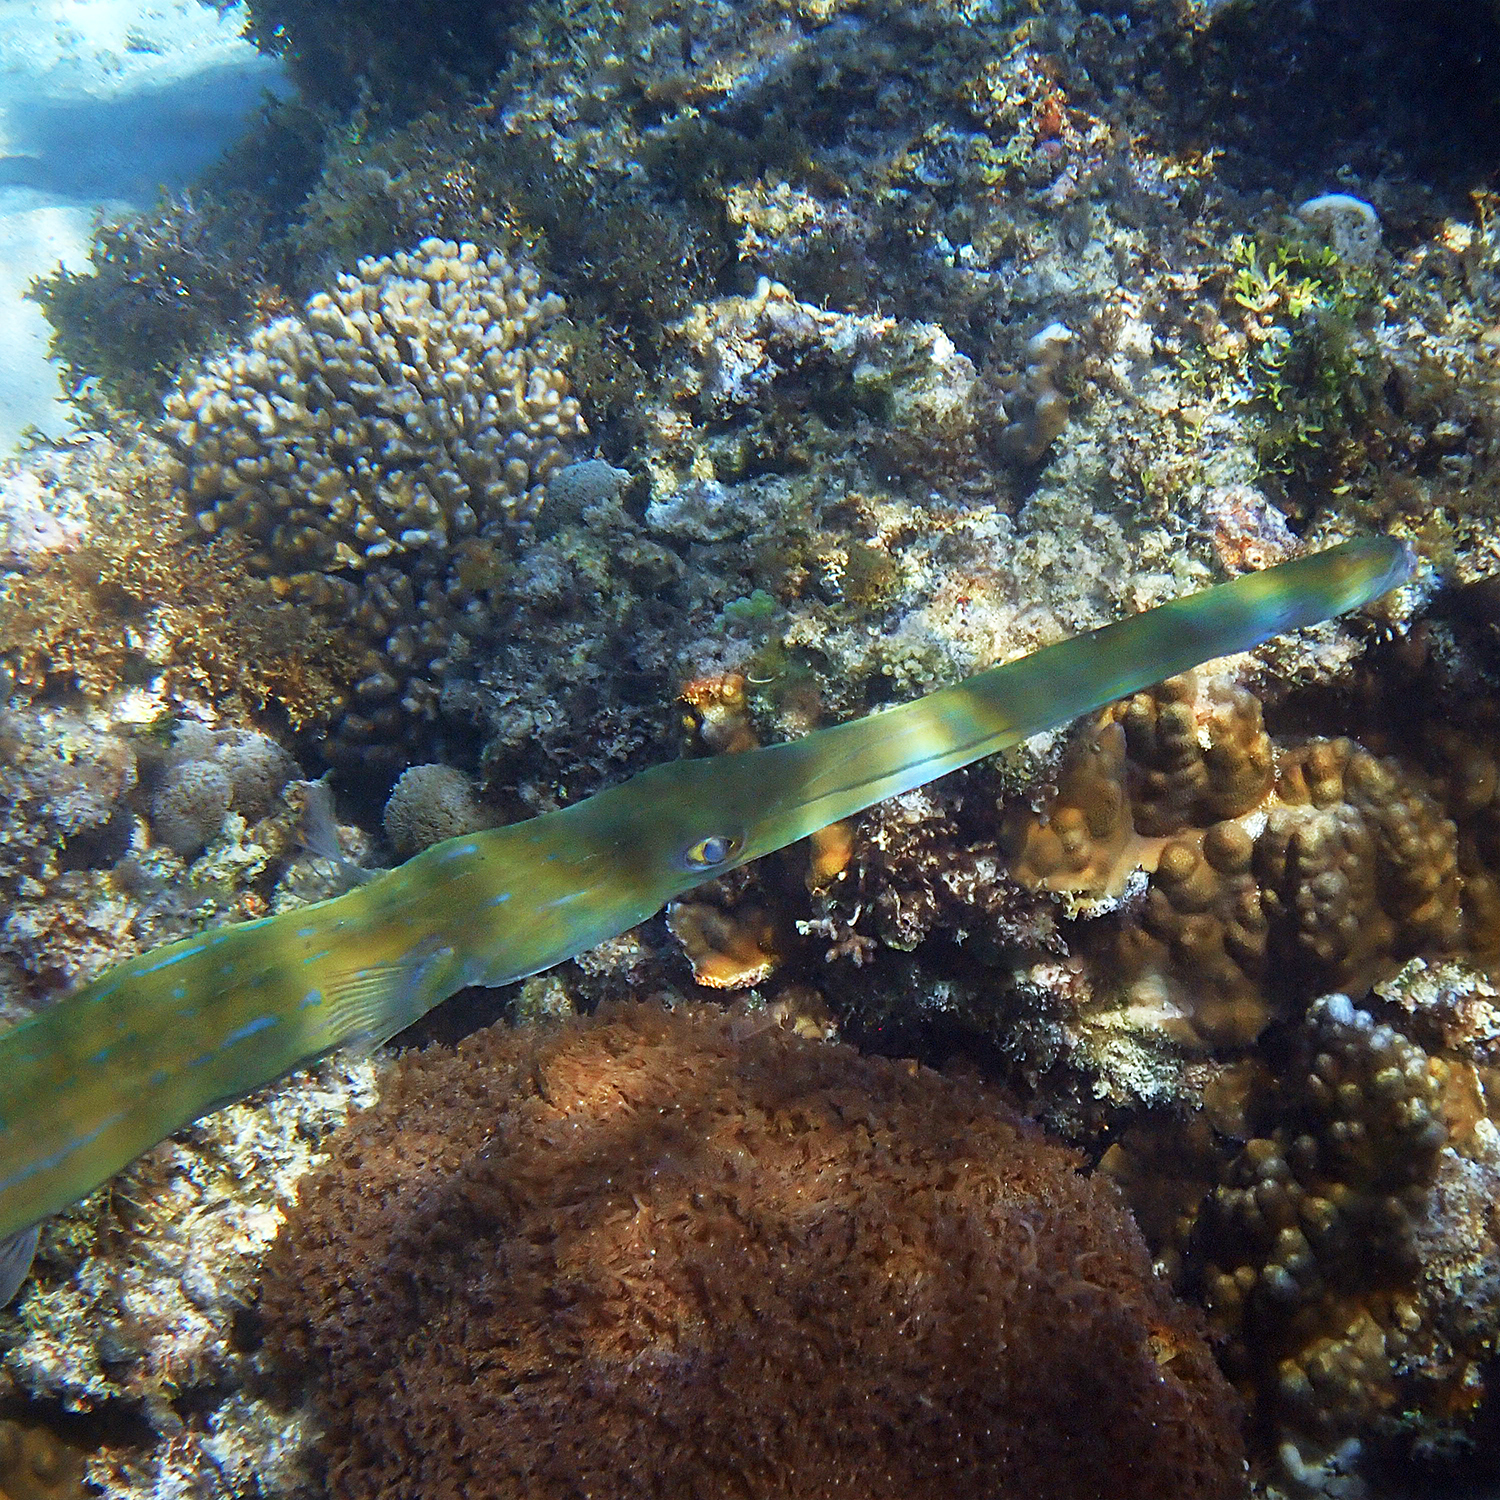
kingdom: Animalia
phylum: Chordata
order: Syngnathiformes
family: Fistulariidae
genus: Fistularia
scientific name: Fistularia commersonii
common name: Bluespotted cornetfish
